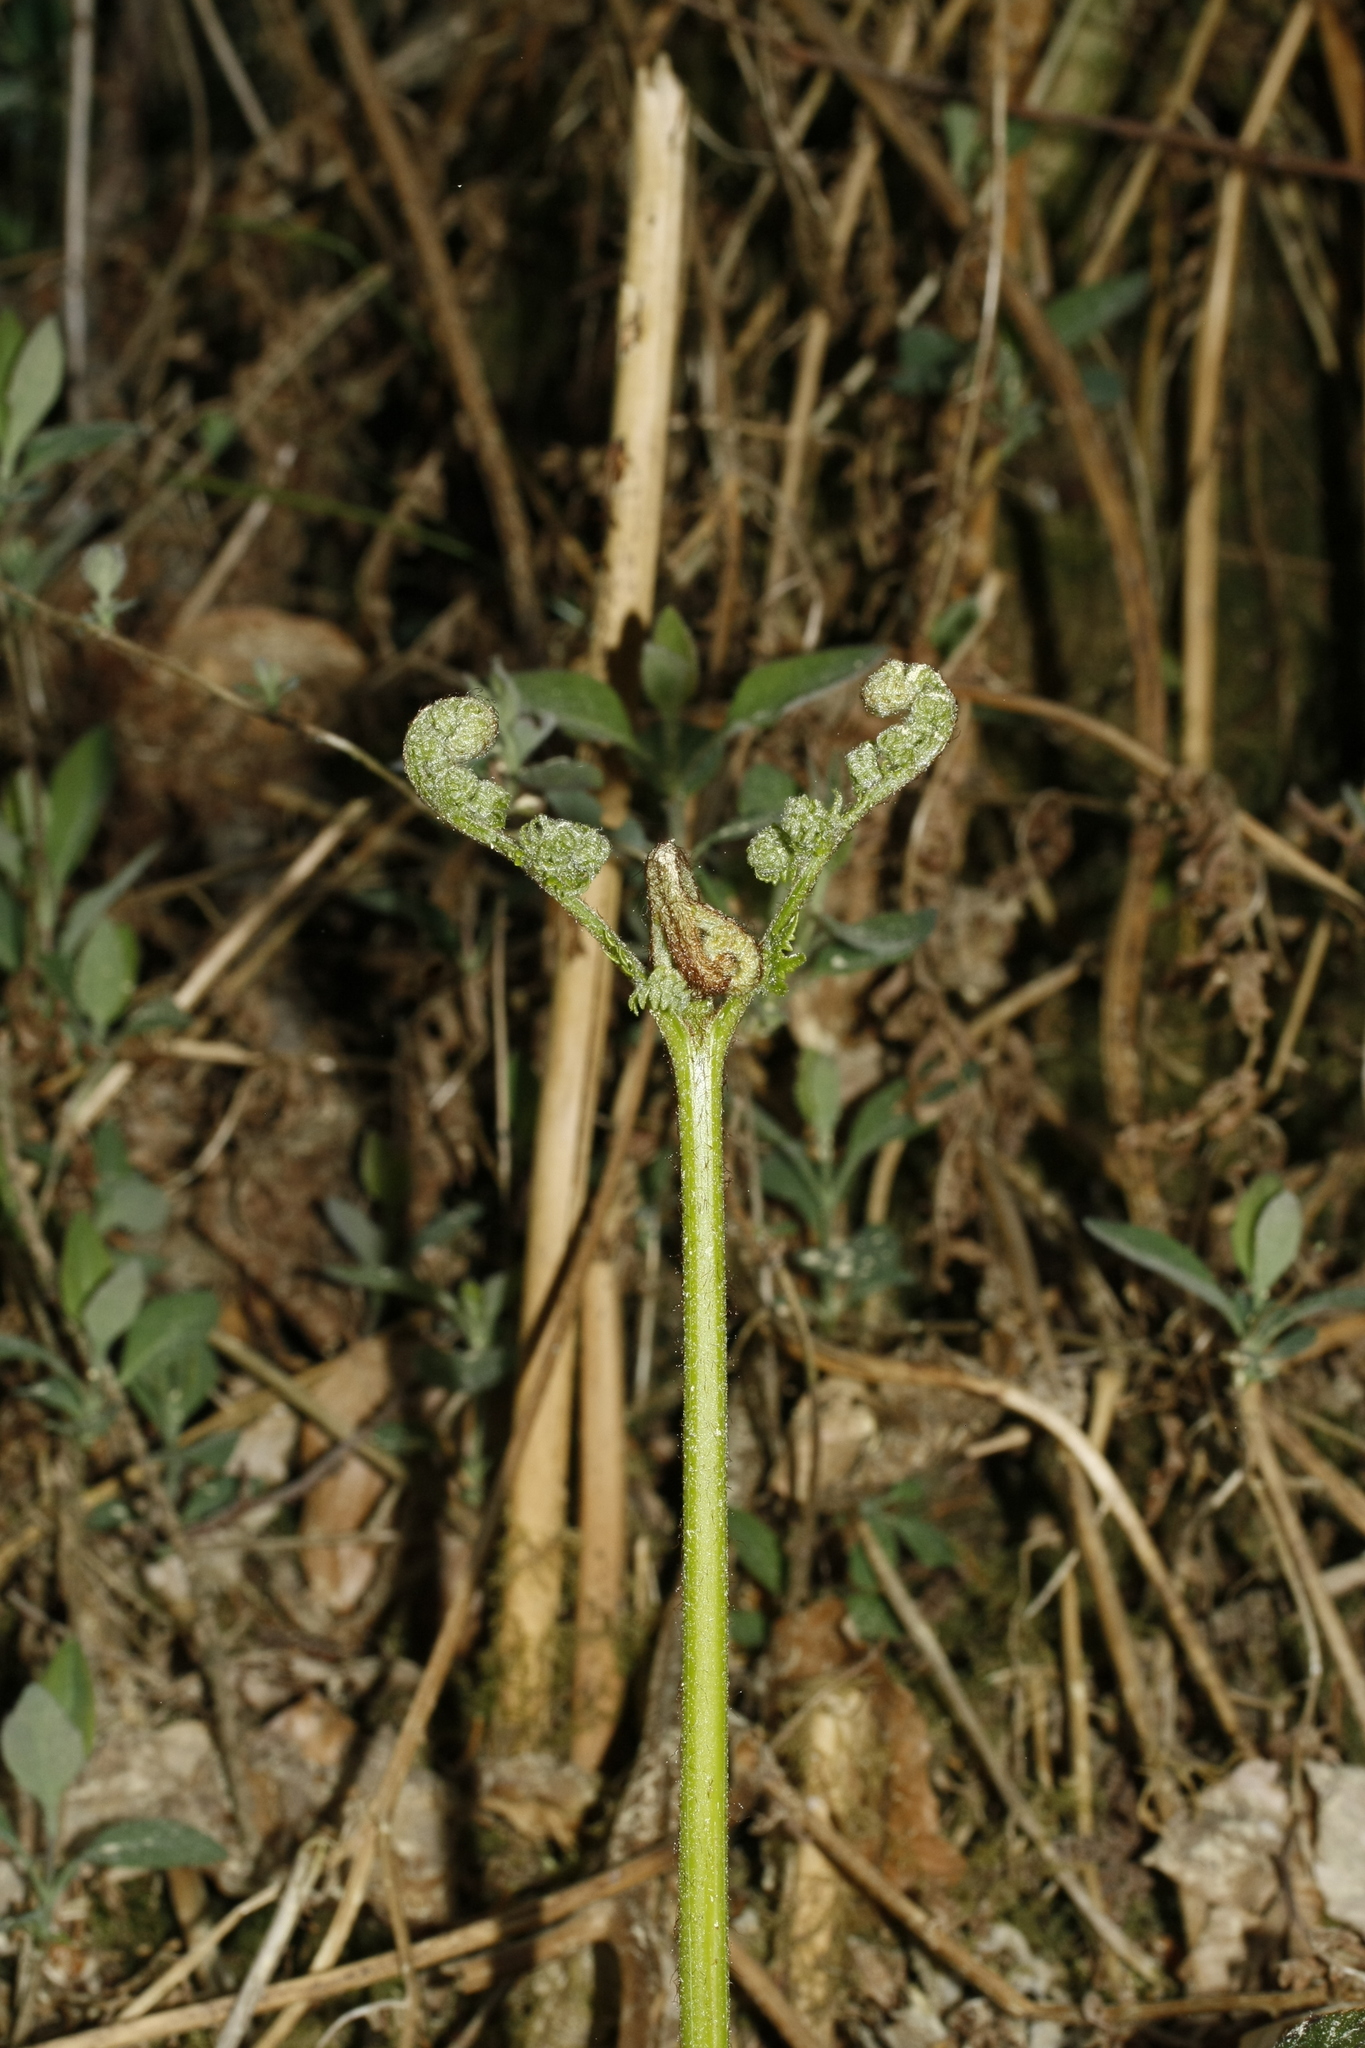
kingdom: Plantae
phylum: Tracheophyta
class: Polypodiopsida
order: Polypodiales
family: Dennstaedtiaceae
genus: Pteridium
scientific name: Pteridium aquilinum
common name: Bracken
